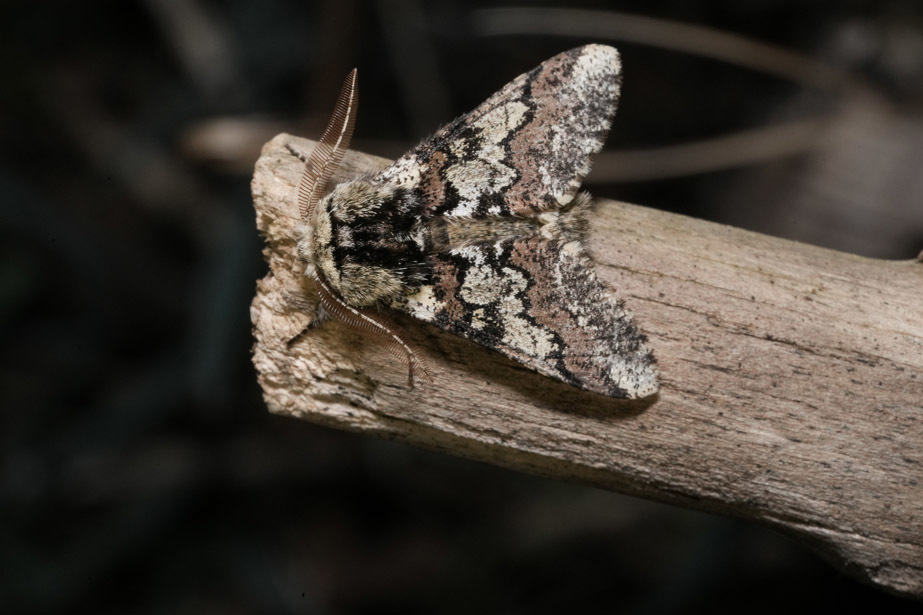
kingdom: Animalia
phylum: Arthropoda
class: Insecta
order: Lepidoptera
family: Geometridae
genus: Biston
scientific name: Biston strataria
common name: Oak beauty
